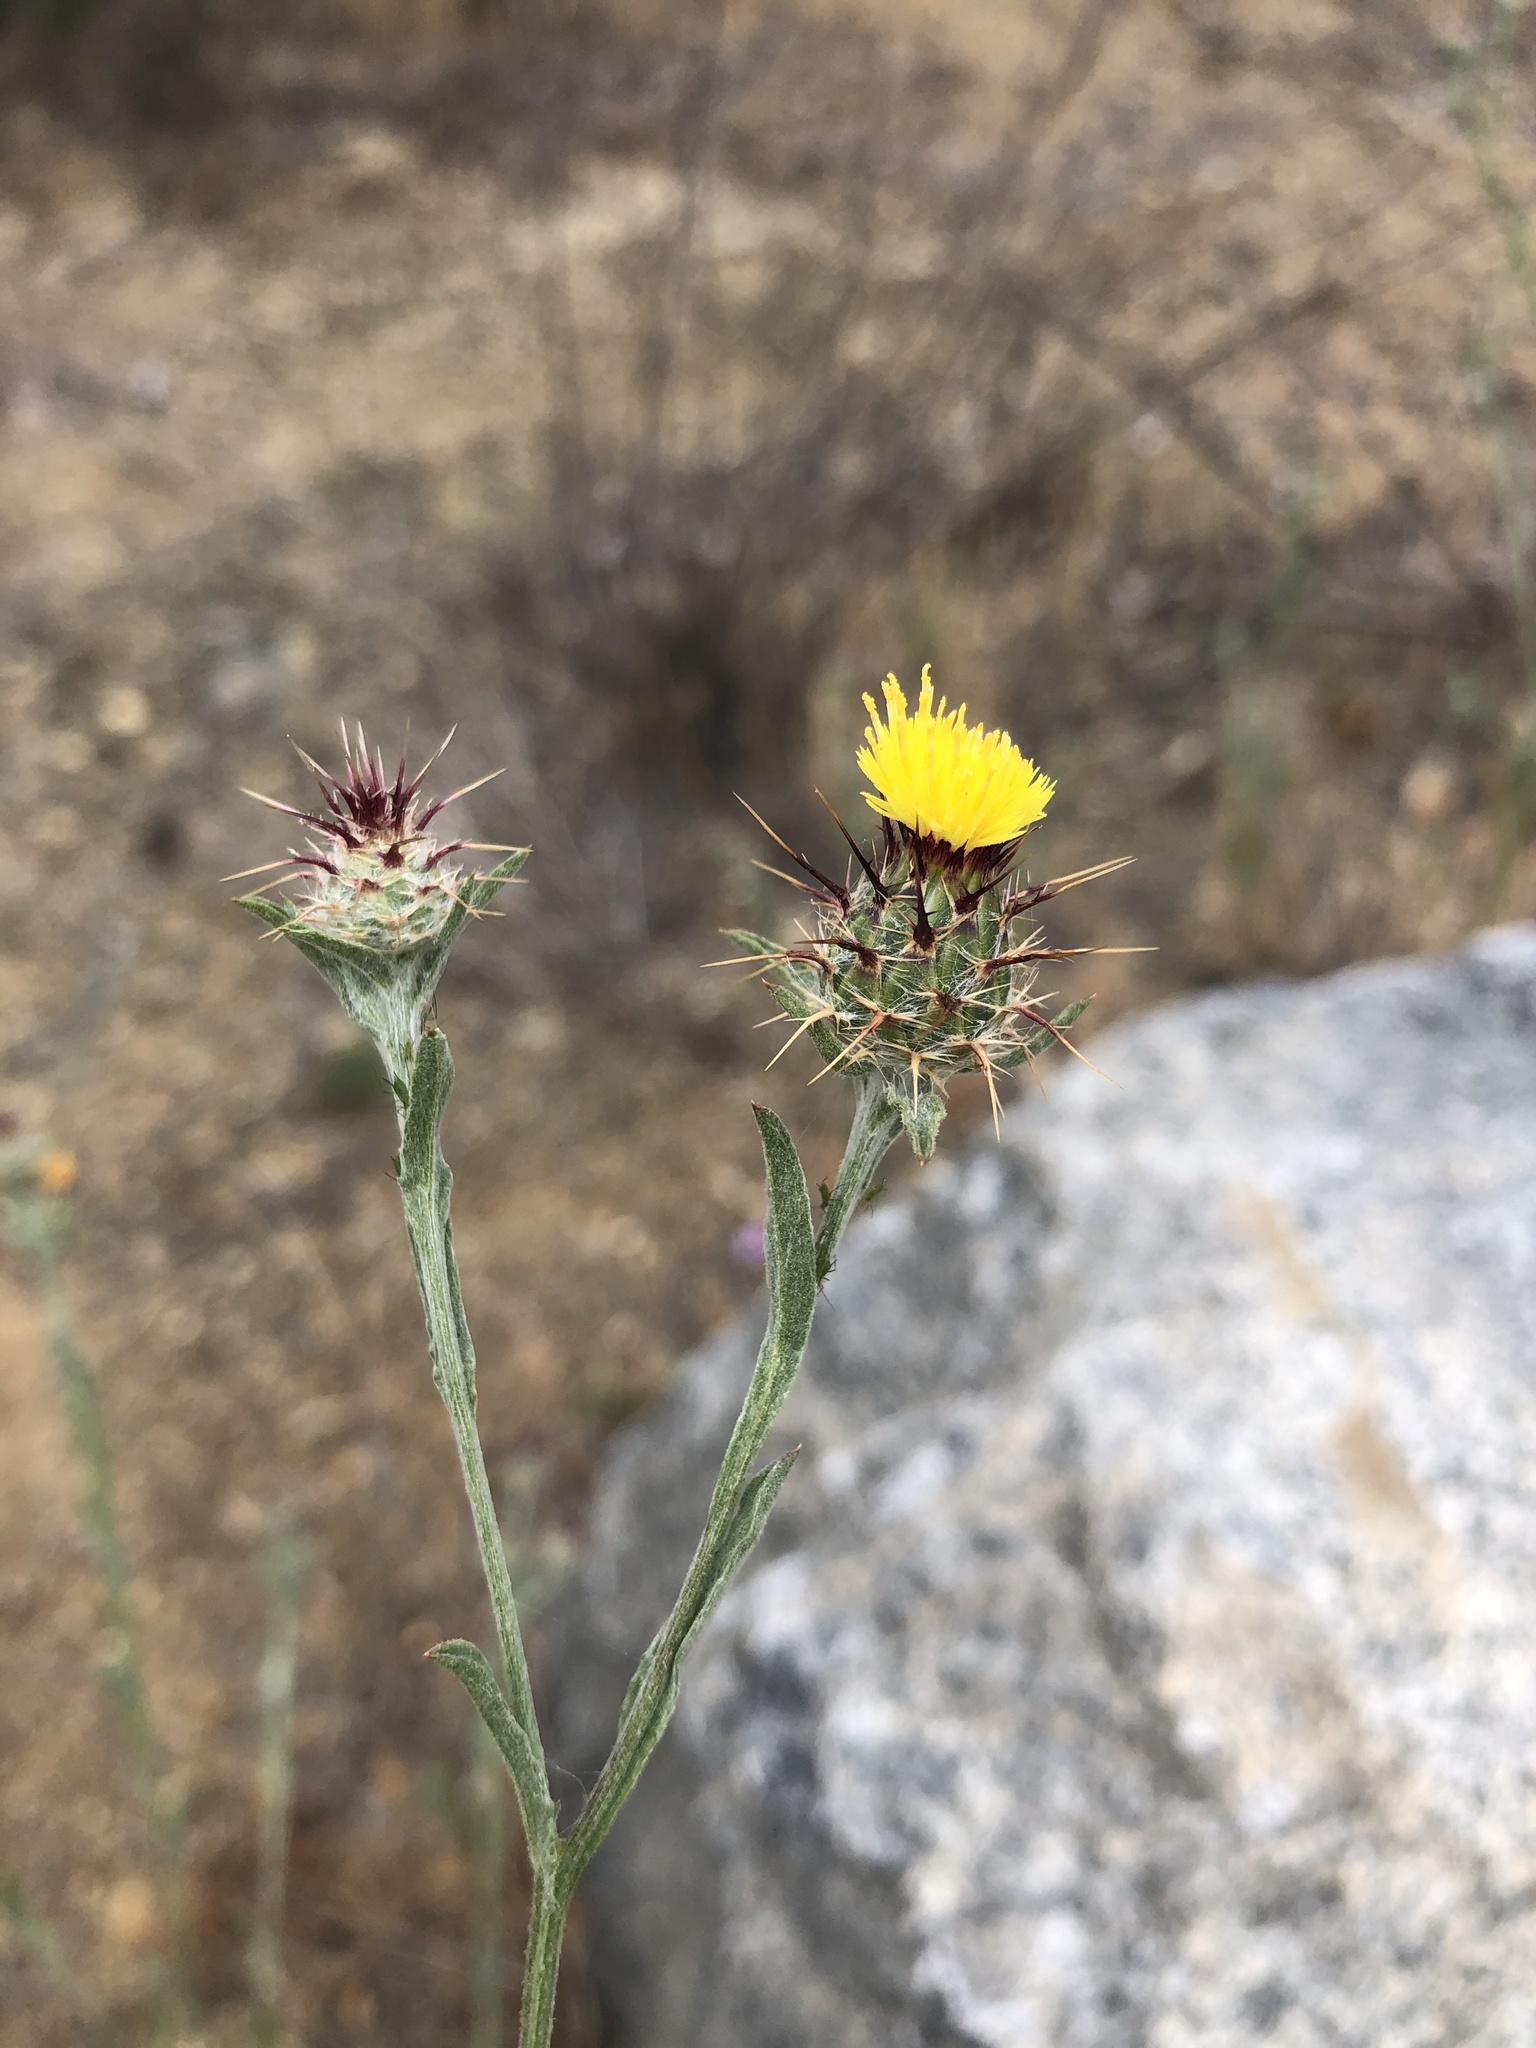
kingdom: Plantae
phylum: Tracheophyta
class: Magnoliopsida
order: Asterales
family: Asteraceae
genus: Centaurea
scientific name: Centaurea melitensis
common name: Maltese star-thistle
